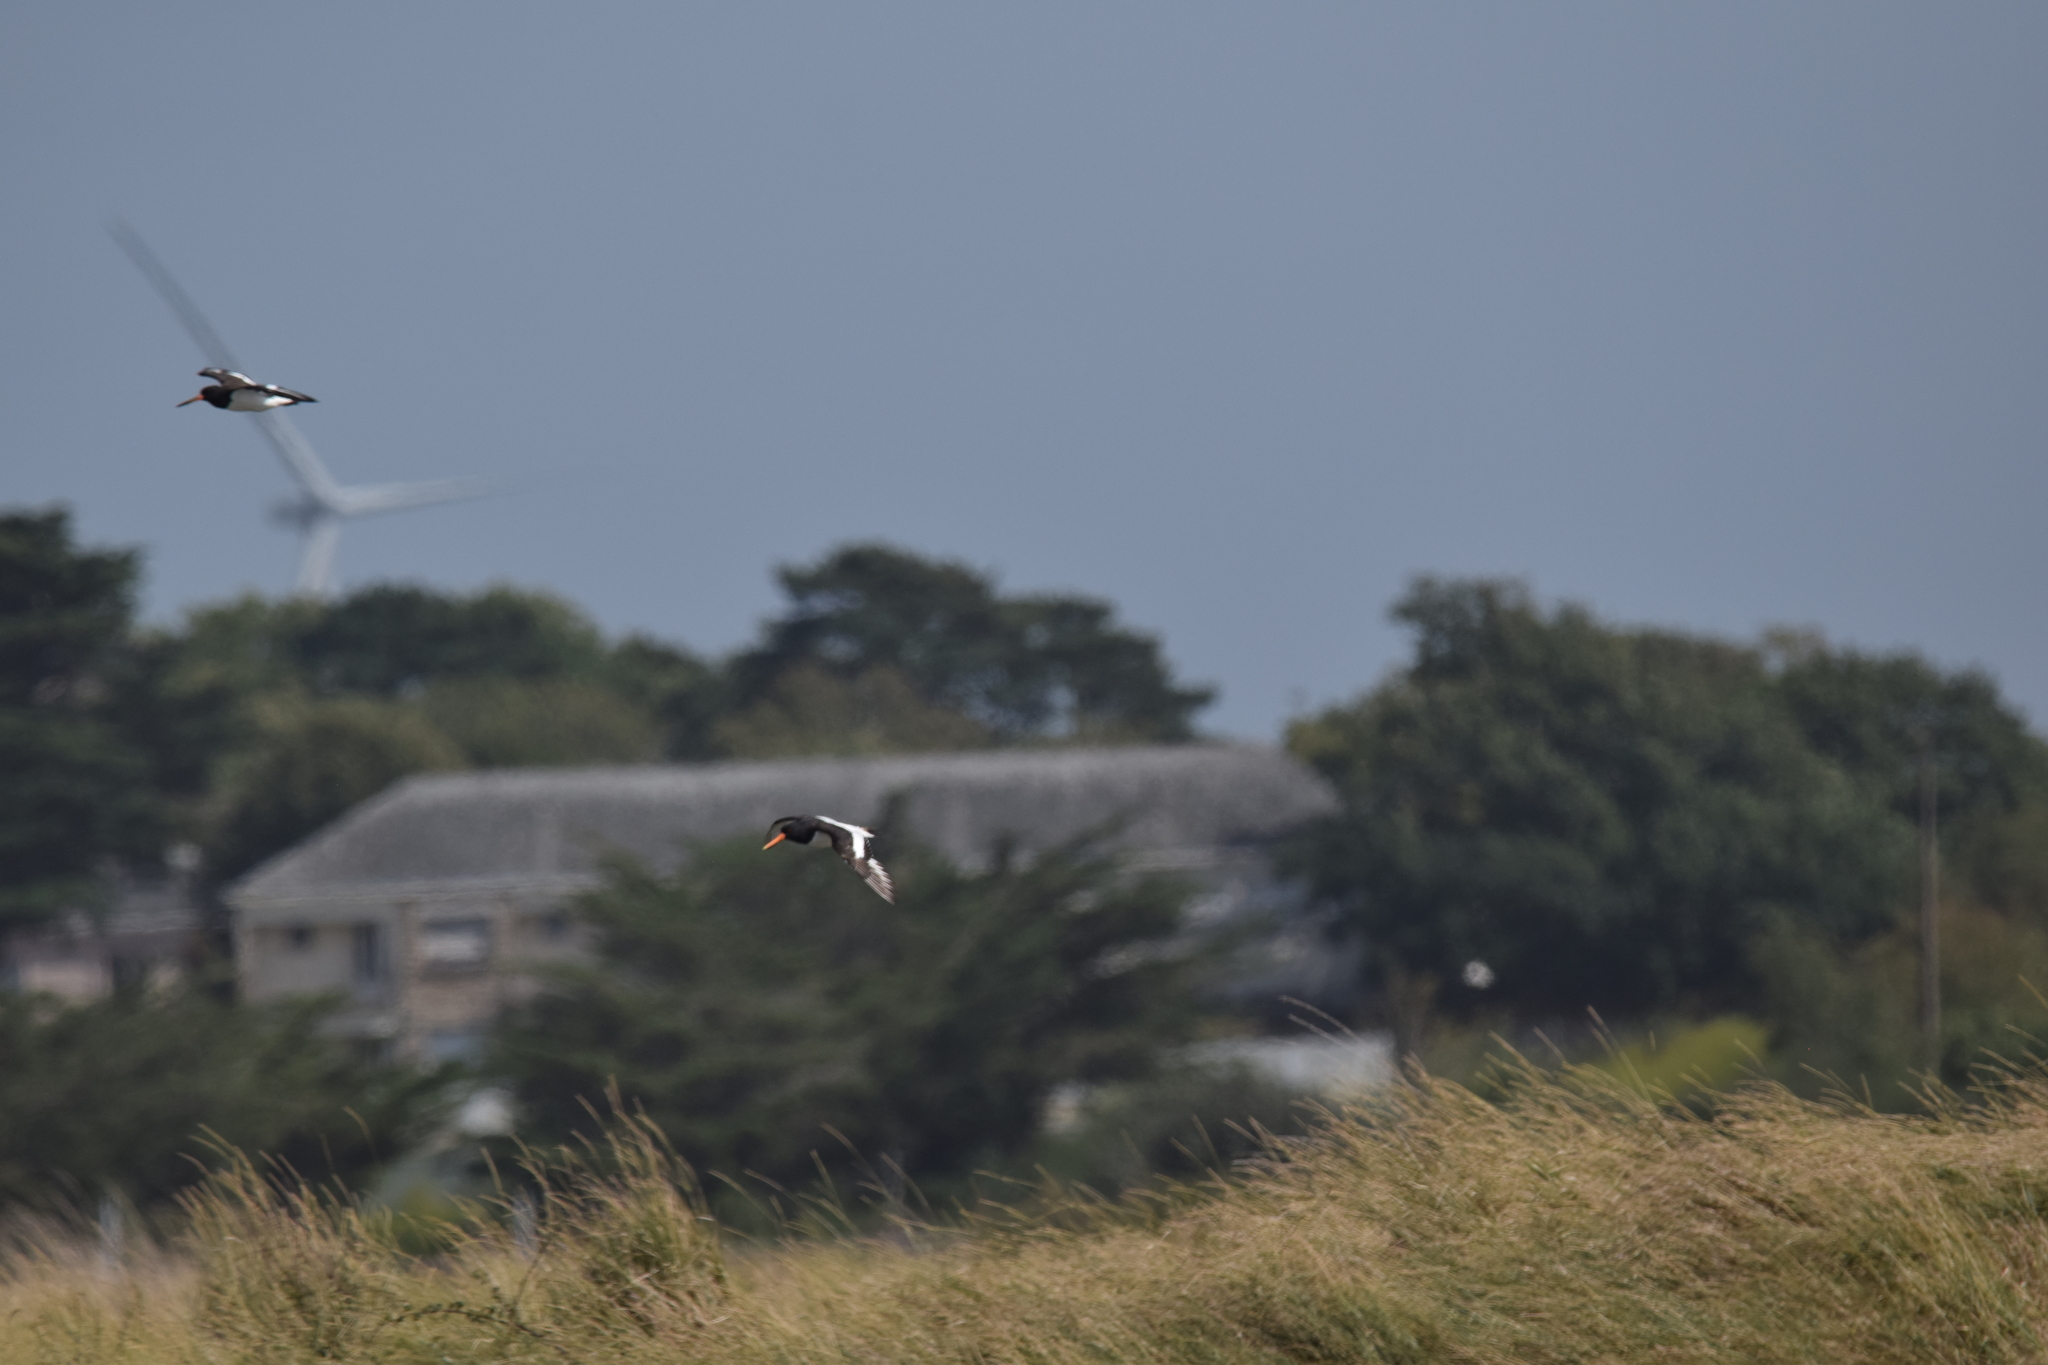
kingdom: Animalia
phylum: Chordata
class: Aves
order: Charadriiformes
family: Haematopodidae
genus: Haematopus
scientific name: Haematopus ostralegus
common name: Eurasian oystercatcher
